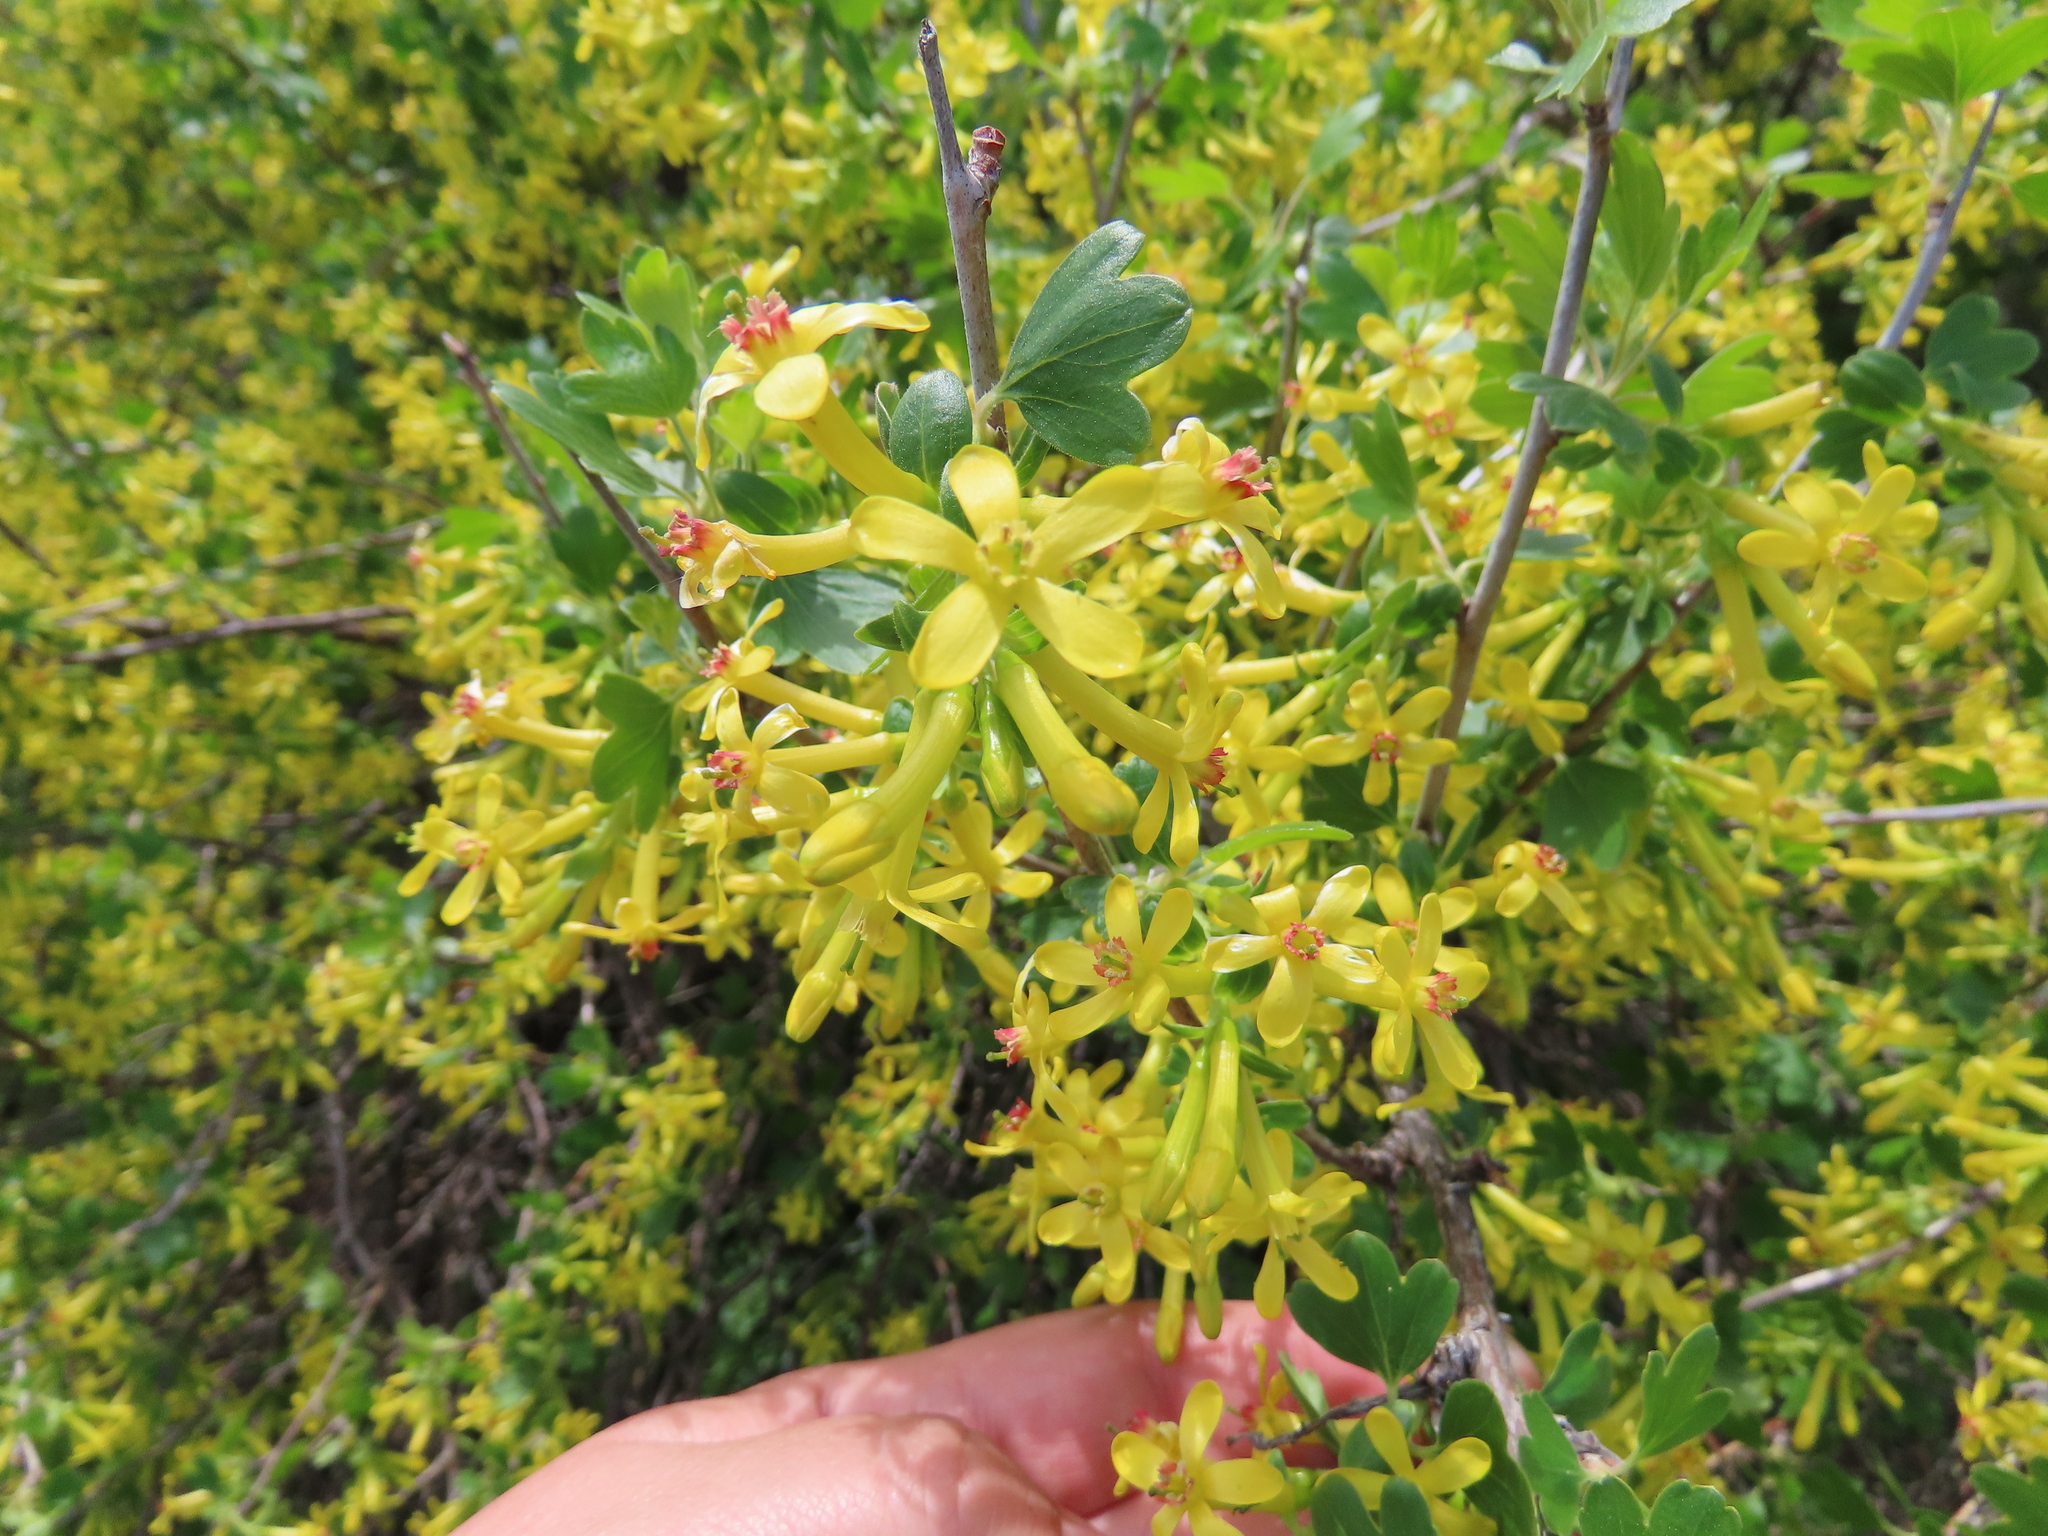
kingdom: Plantae
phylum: Tracheophyta
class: Magnoliopsida
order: Saxifragales
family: Grossulariaceae
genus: Ribes
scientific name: Ribes aureum
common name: Golden currant
